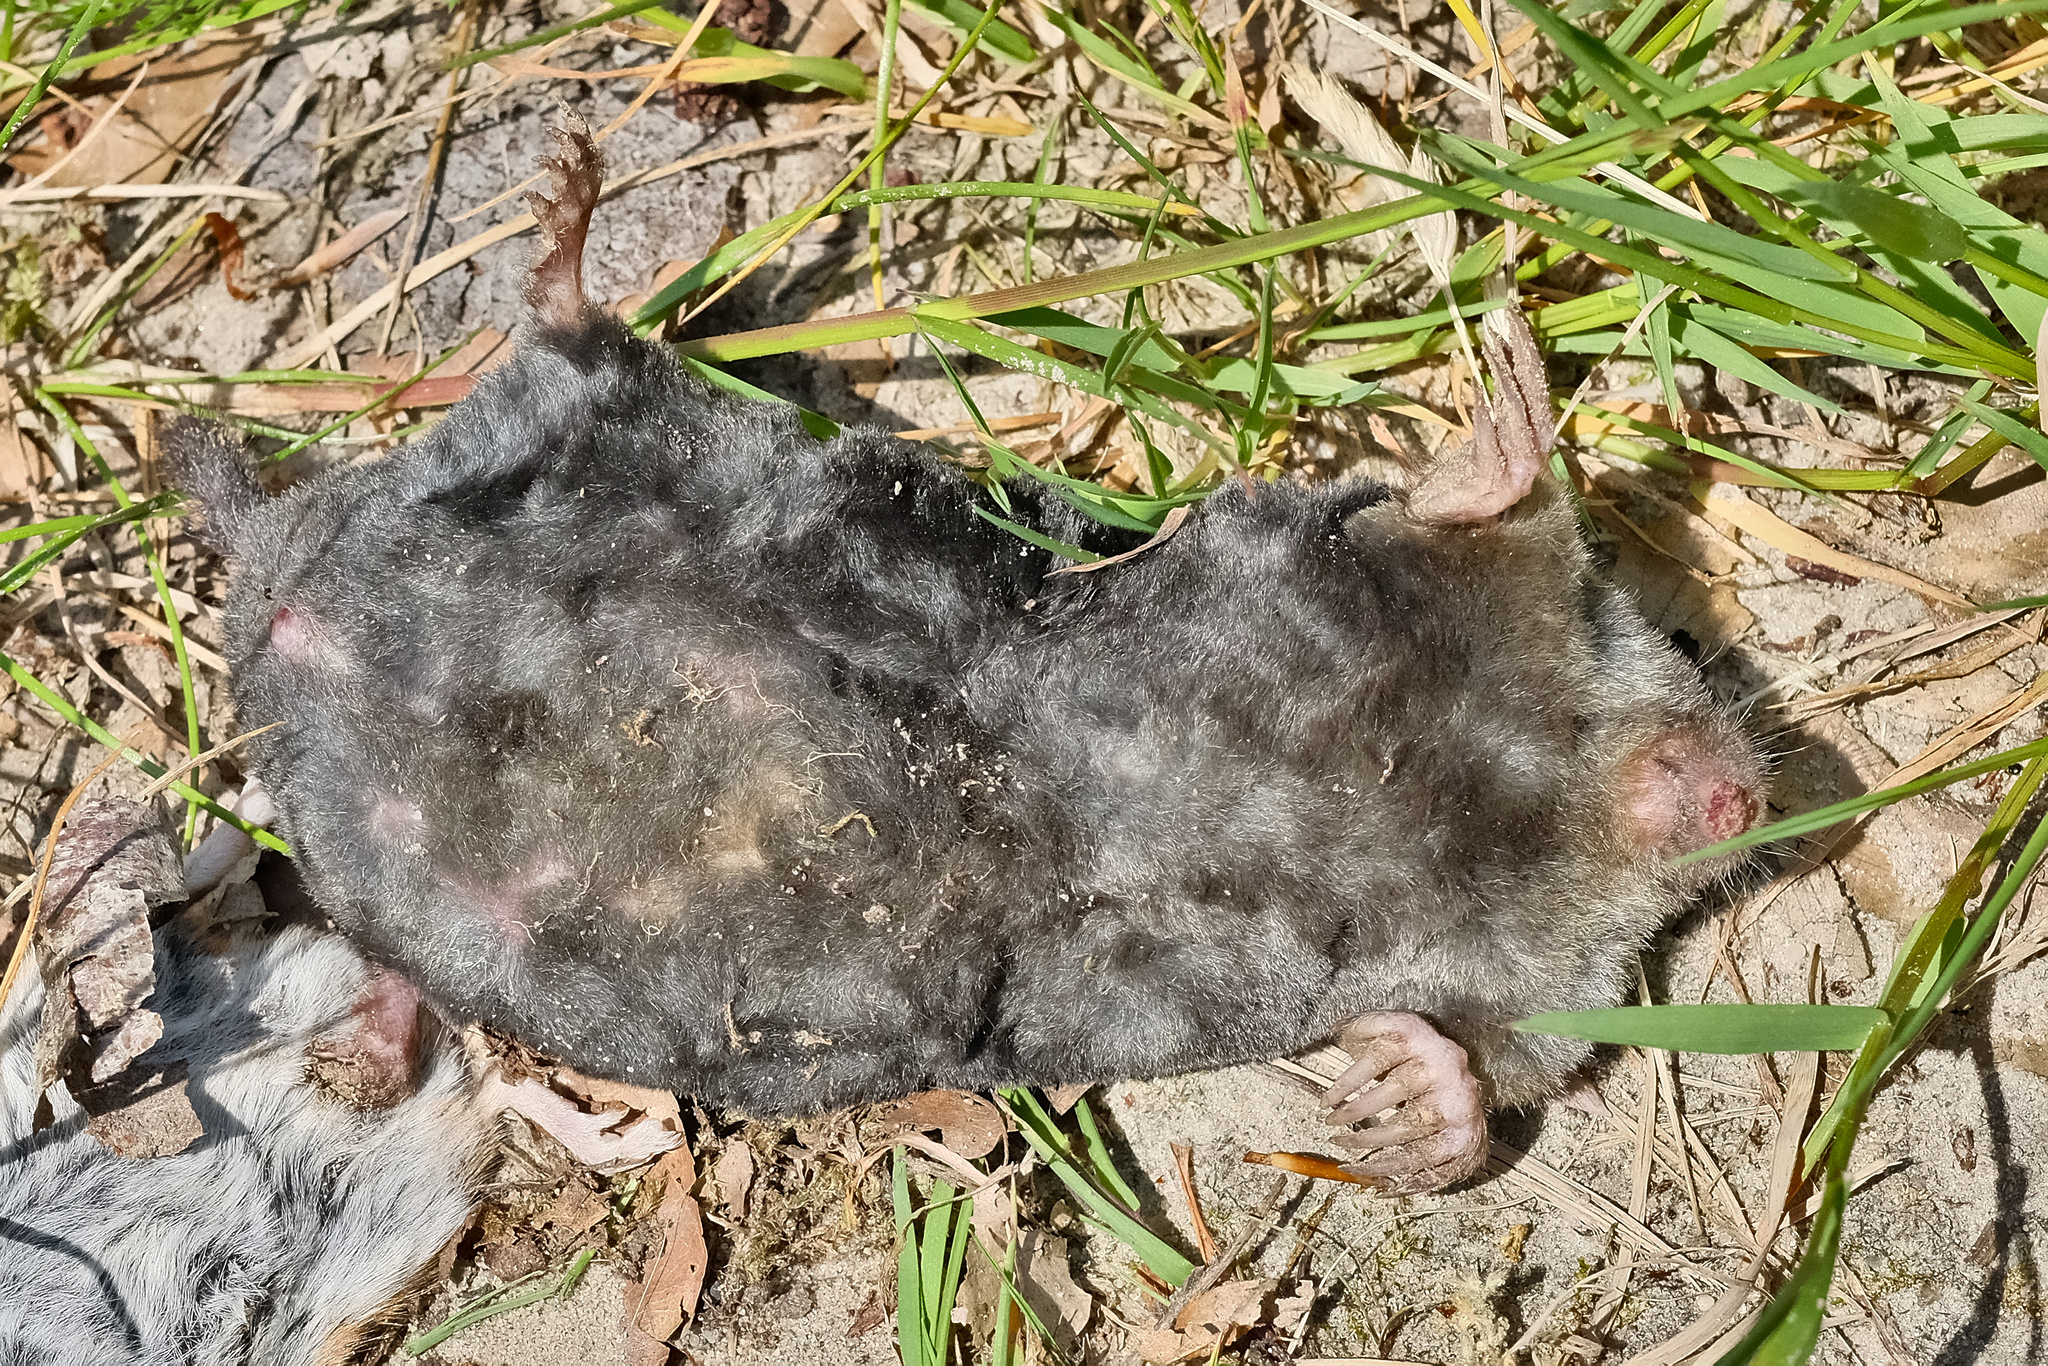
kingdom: Animalia
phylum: Chordata
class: Mammalia
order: Soricomorpha
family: Talpidae
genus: Talpa
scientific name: Talpa europaea
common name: European mole
